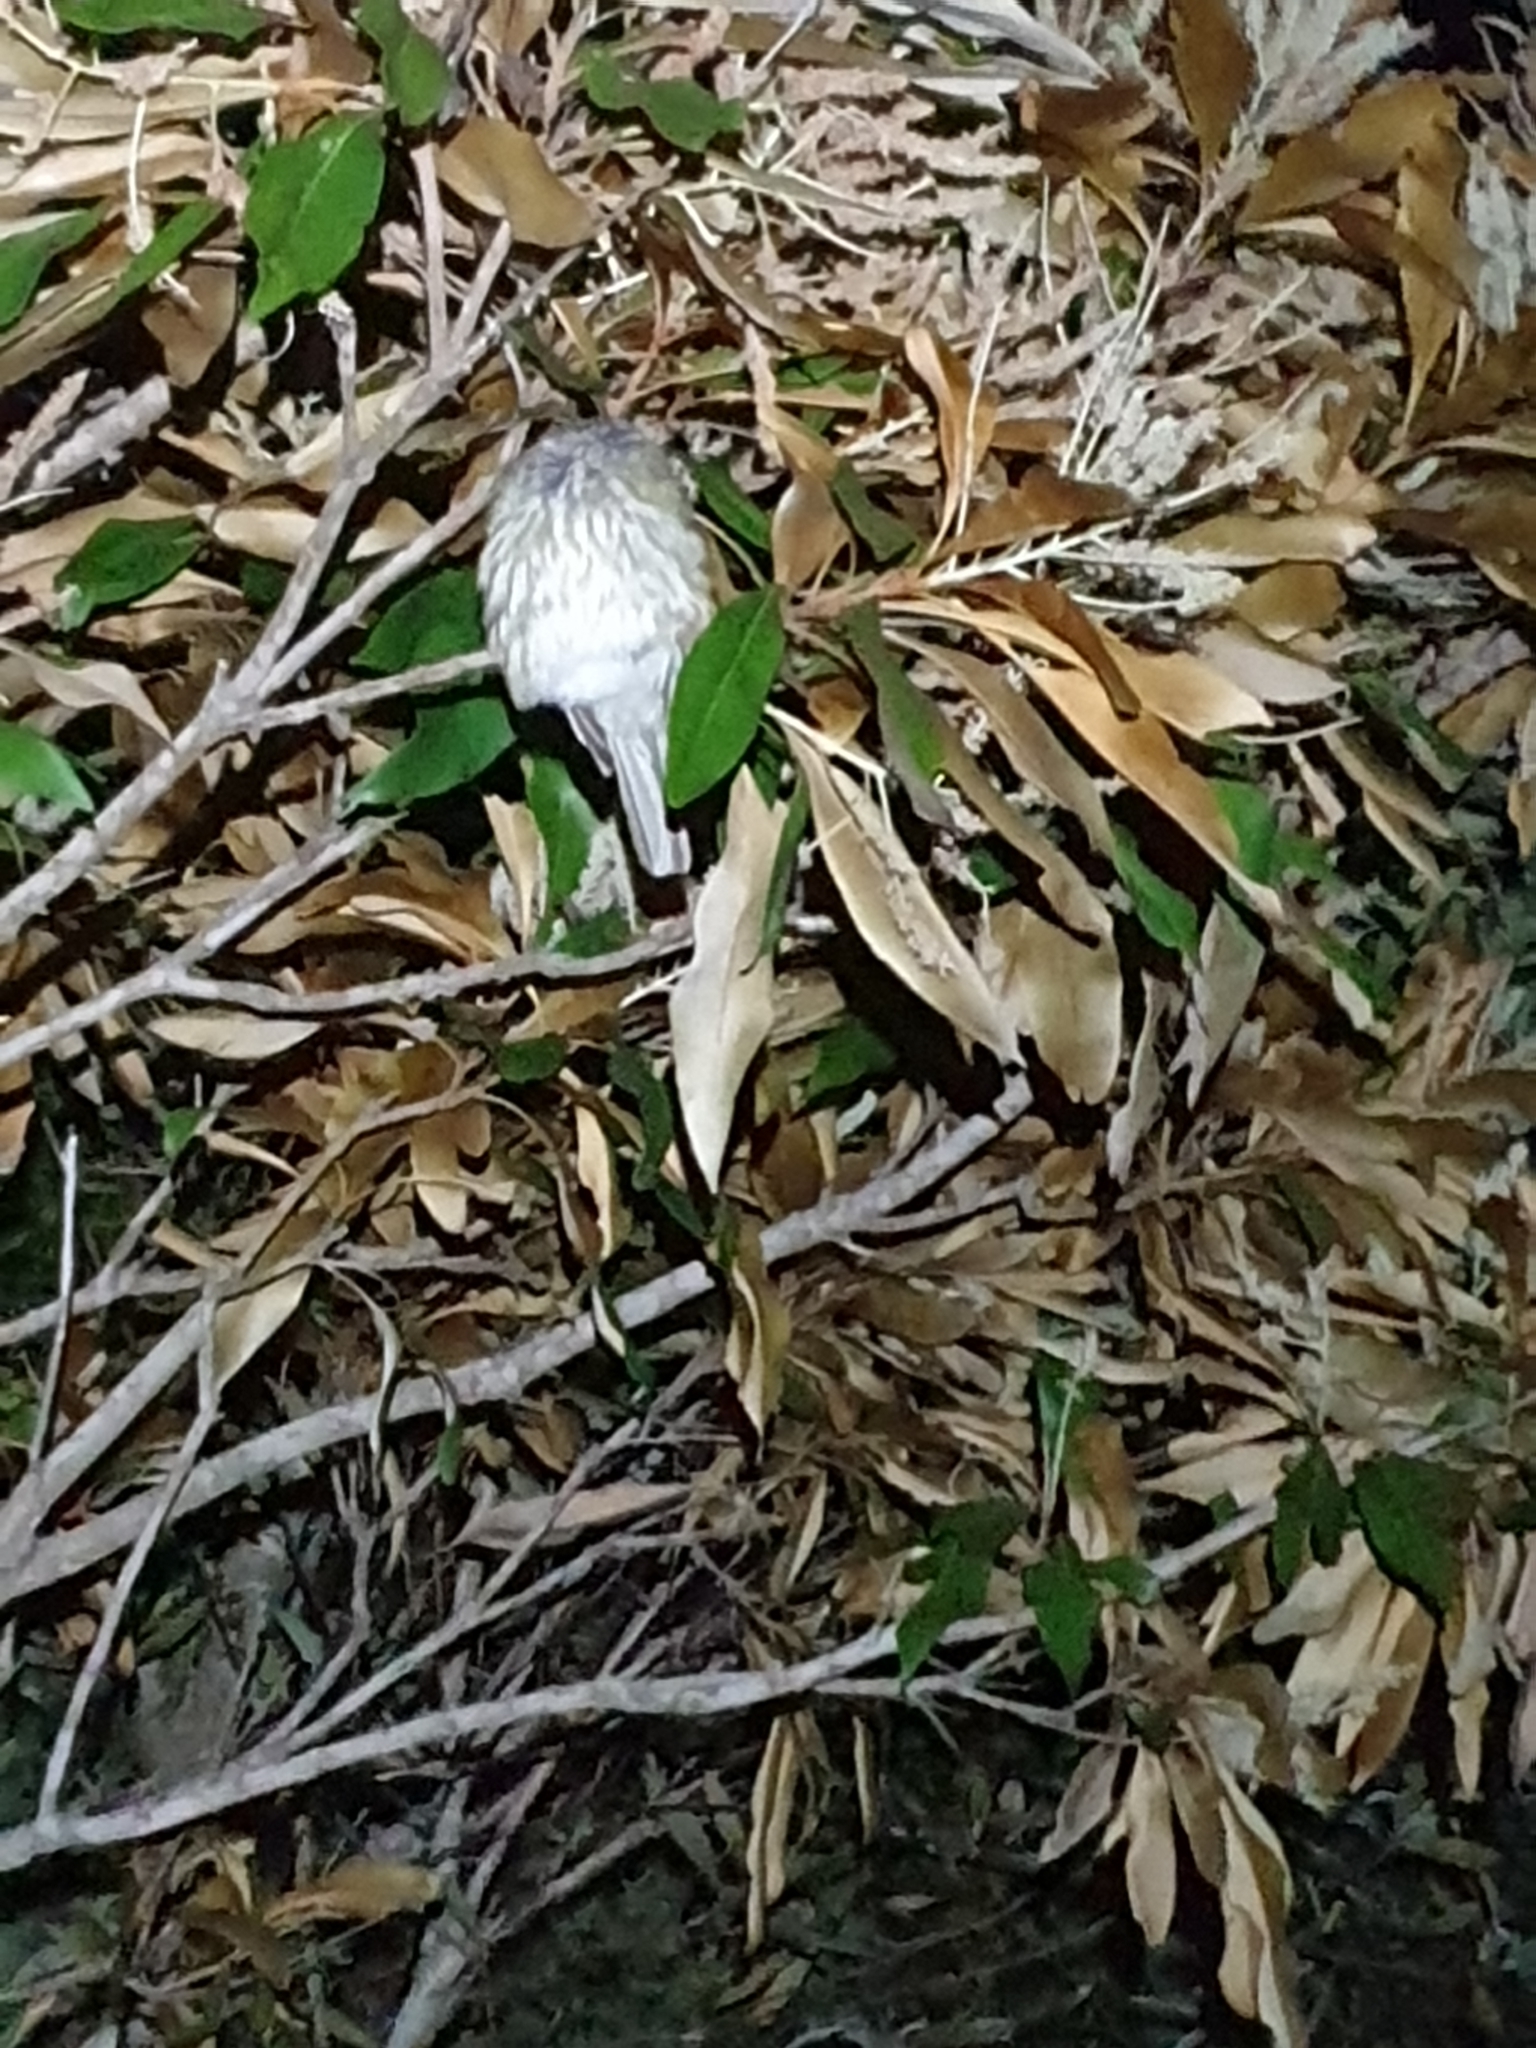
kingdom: Animalia
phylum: Chordata
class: Aves
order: Passeriformes
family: Oriolidae
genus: Sphecotheres
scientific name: Sphecotheres vieilloti
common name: Australasian figbird
